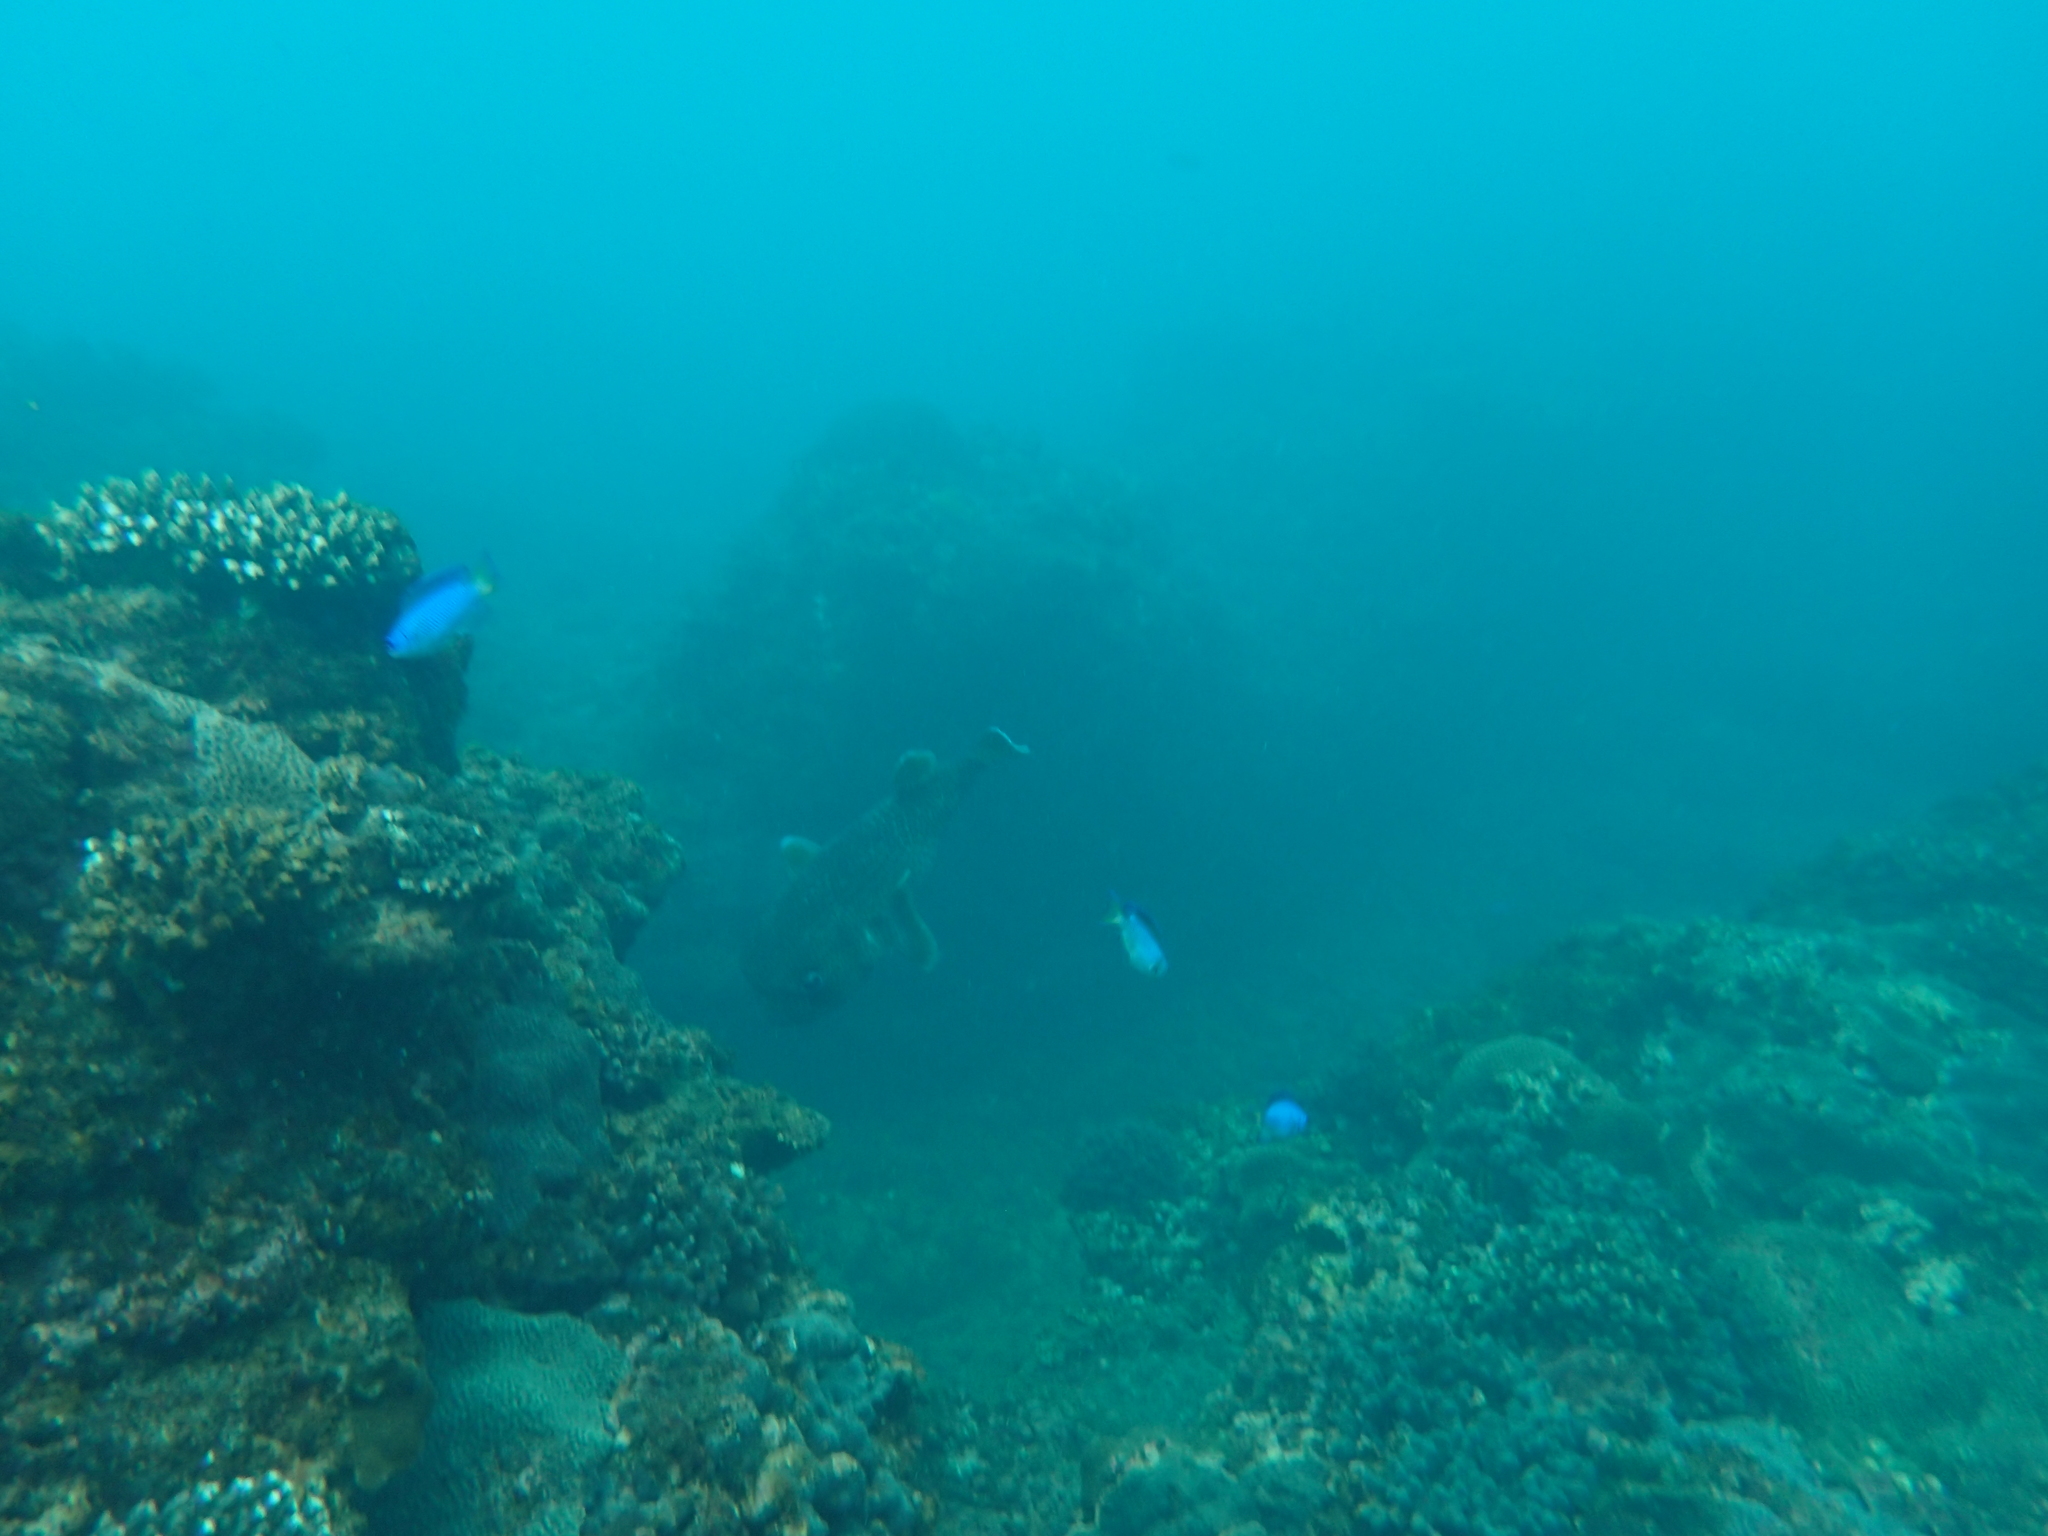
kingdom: Animalia
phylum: Chordata
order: Tetraodontiformes
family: Diodontidae
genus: Diodon
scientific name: Diodon hystrix
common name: Giant porcupinefish
